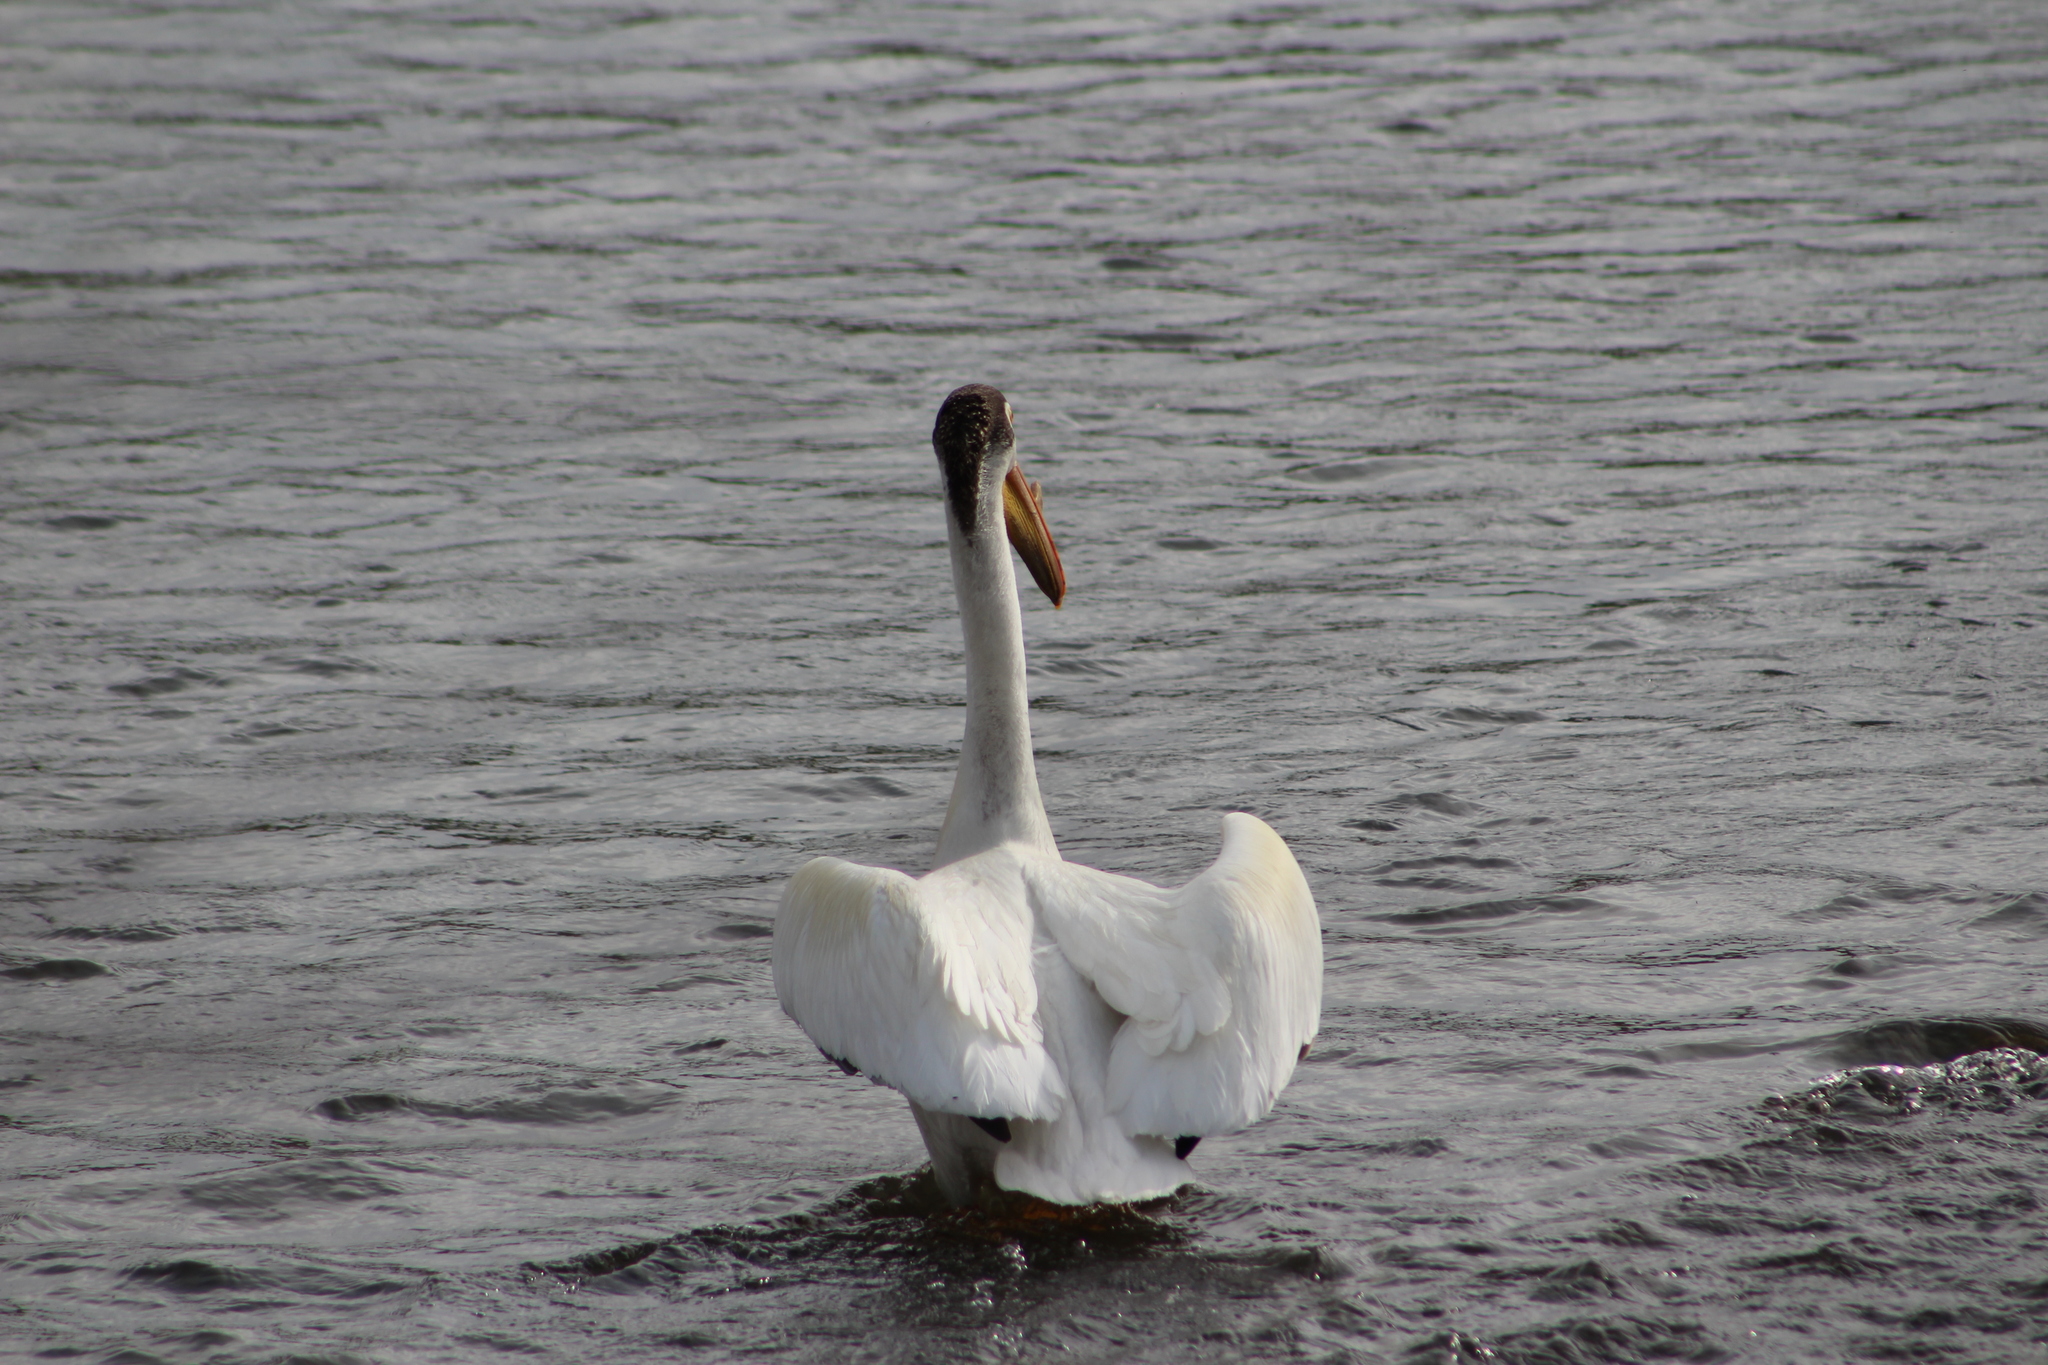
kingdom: Animalia
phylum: Chordata
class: Aves
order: Pelecaniformes
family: Pelecanidae
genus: Pelecanus
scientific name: Pelecanus erythrorhynchos
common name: American white pelican
